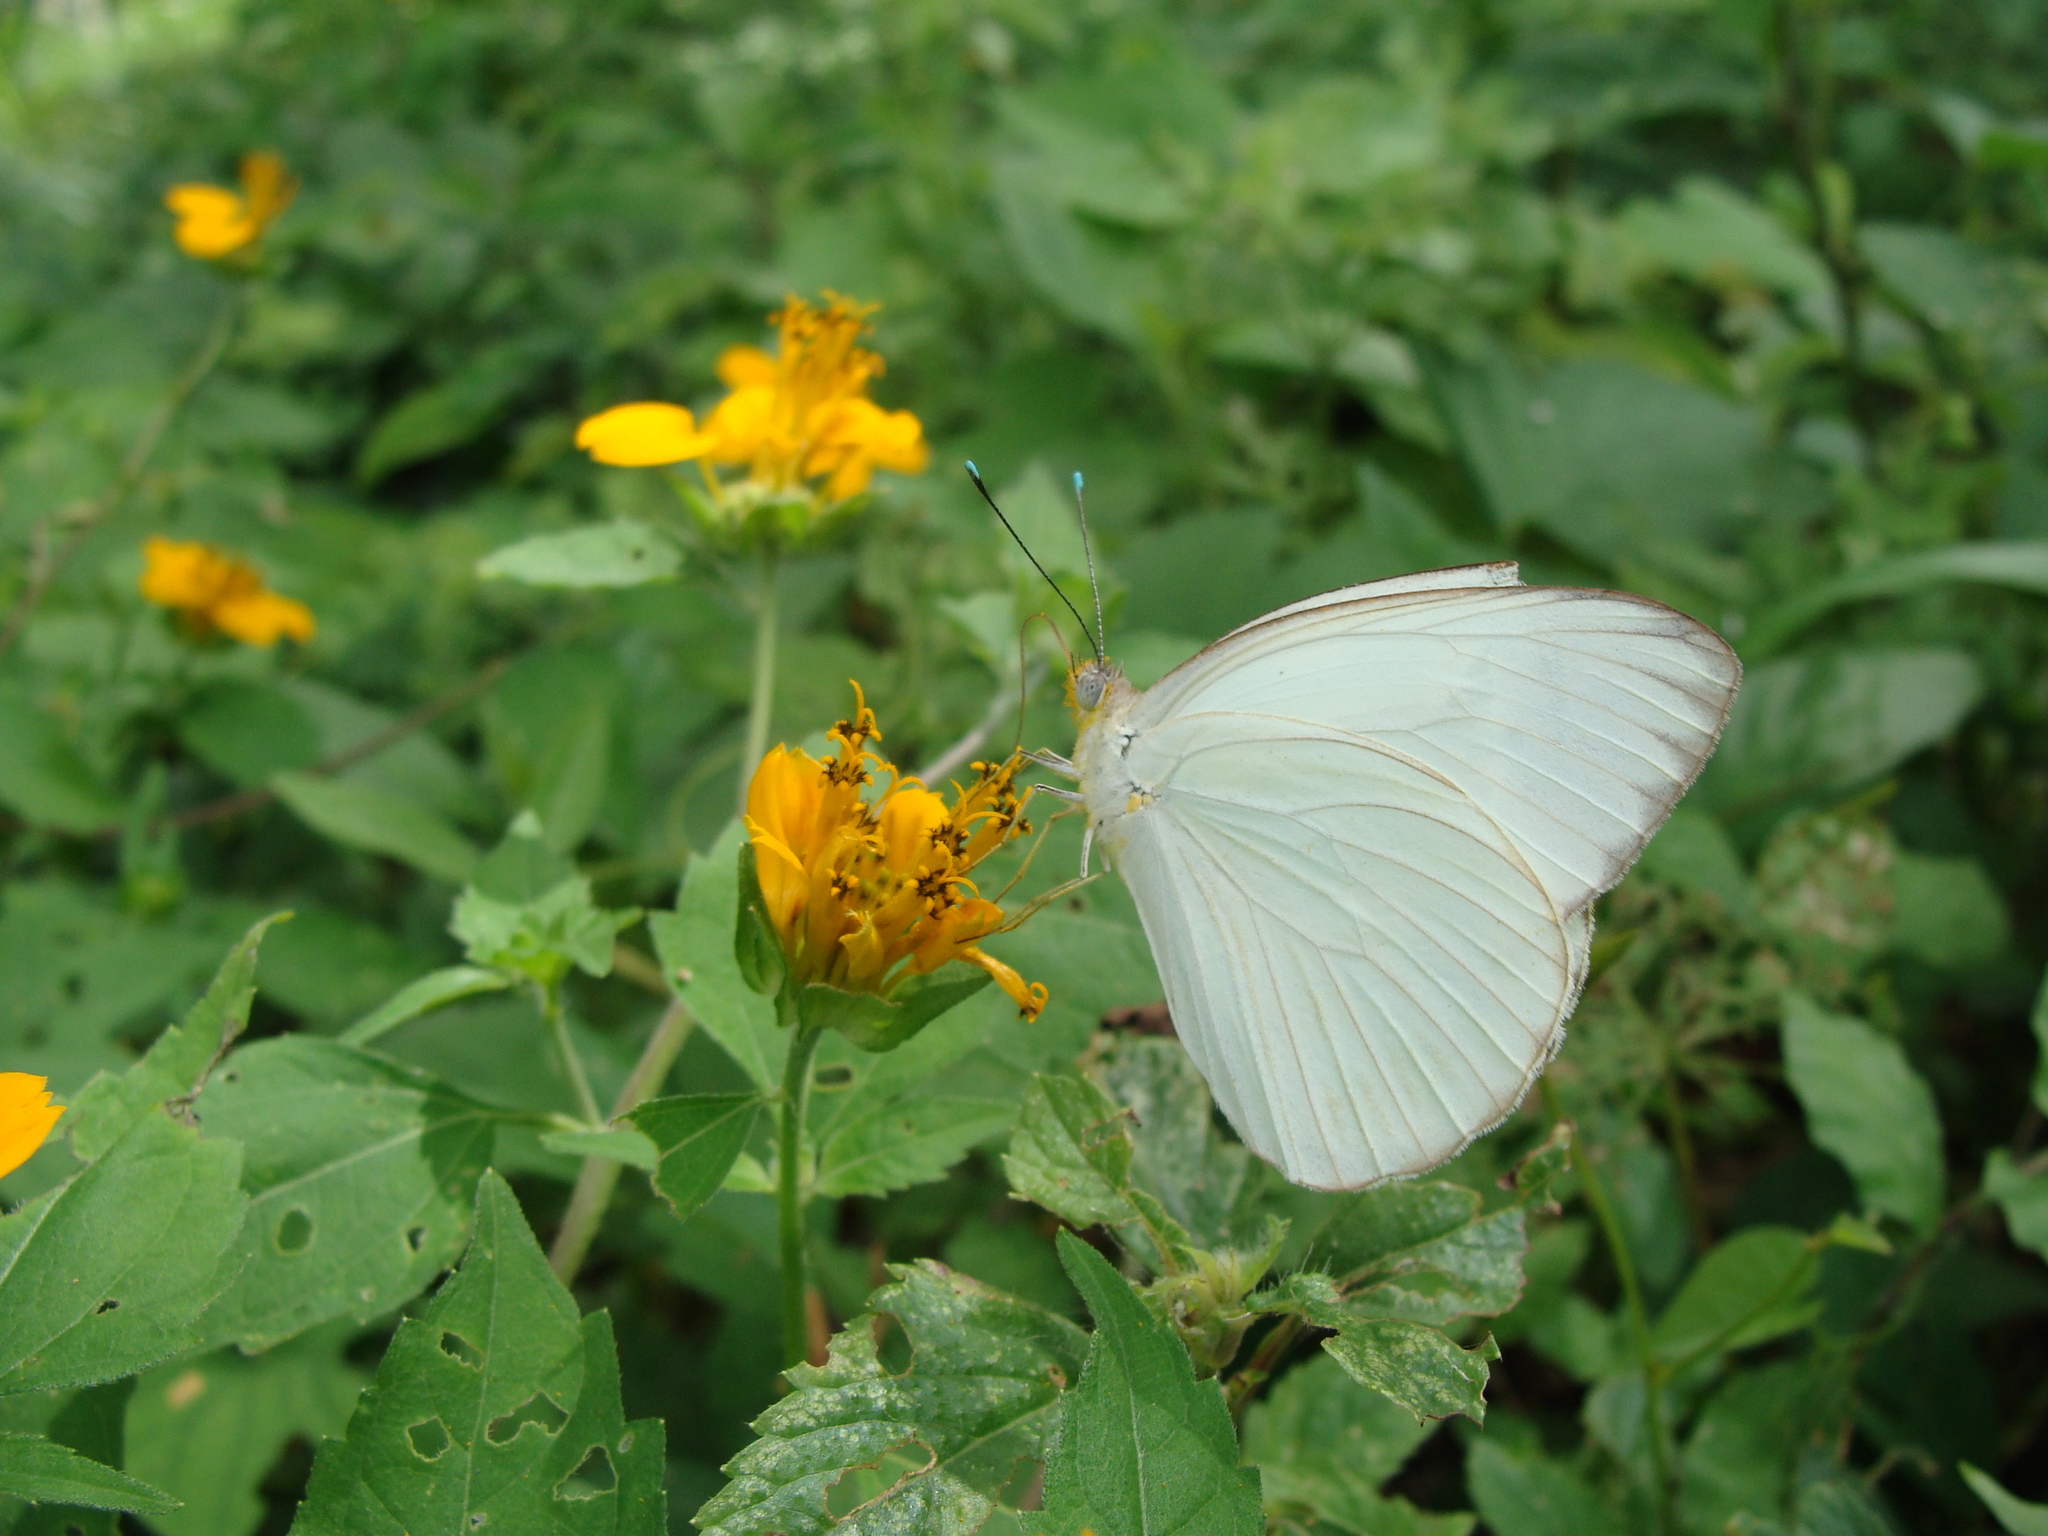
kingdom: Animalia
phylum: Arthropoda
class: Insecta
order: Lepidoptera
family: Pieridae
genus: Ascia
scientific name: Ascia monuste
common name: Great southern white
